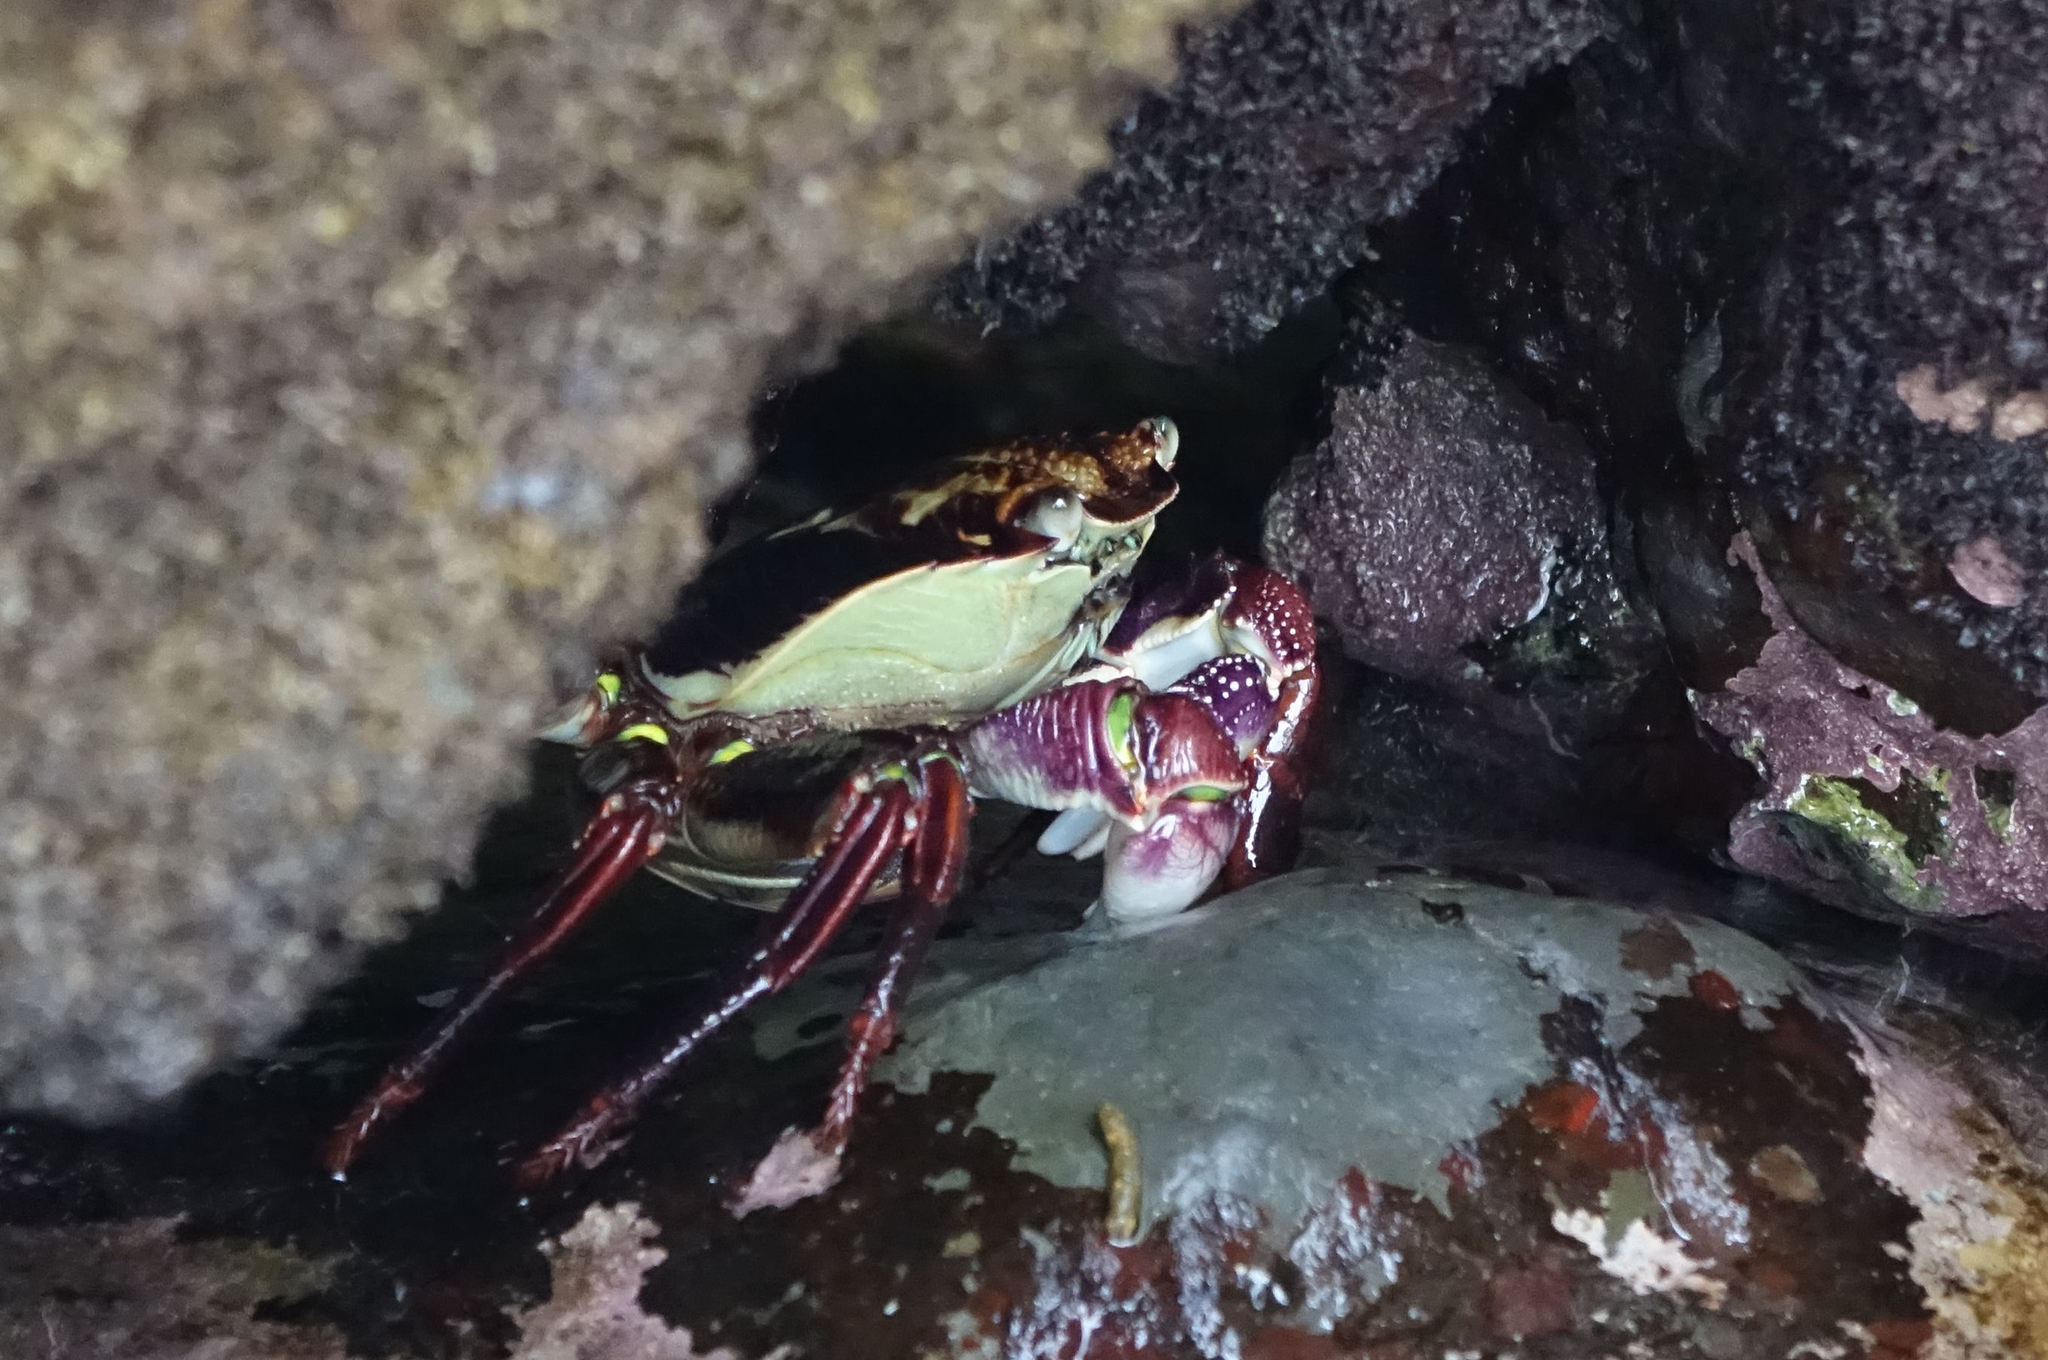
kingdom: Animalia
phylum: Arthropoda
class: Malacostraca
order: Decapoda
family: Grapsidae
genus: Leptograpsus
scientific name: Leptograpsus variegatus
